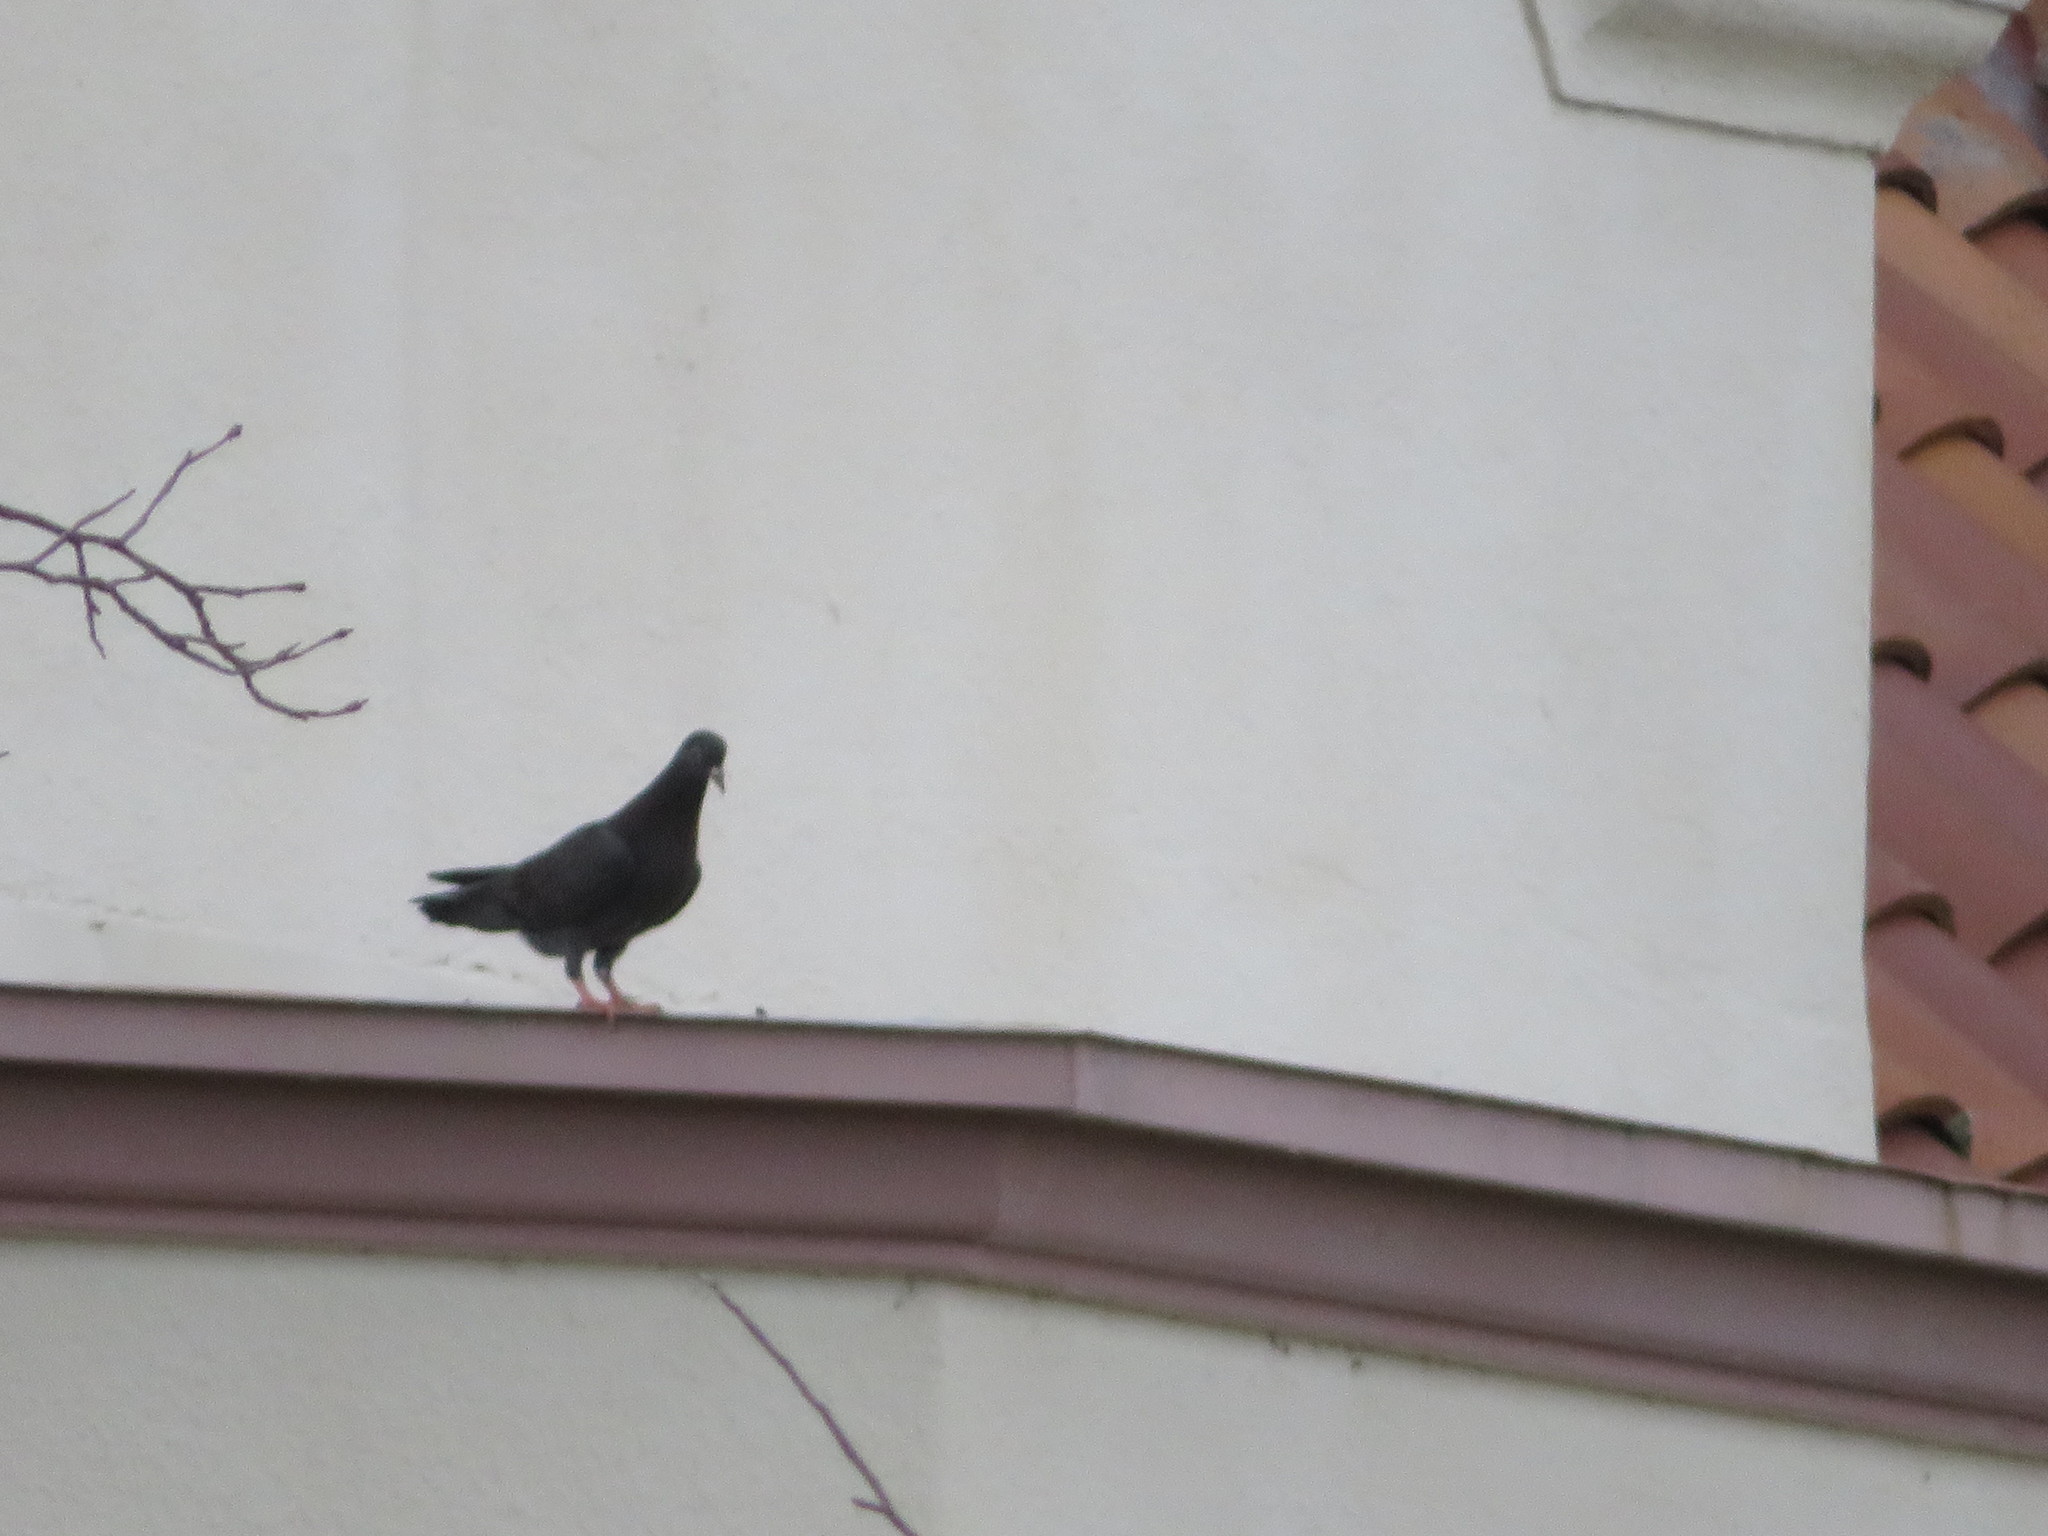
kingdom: Animalia
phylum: Chordata
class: Aves
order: Columbiformes
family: Columbidae
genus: Columba
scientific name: Columba livia
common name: Rock pigeon
